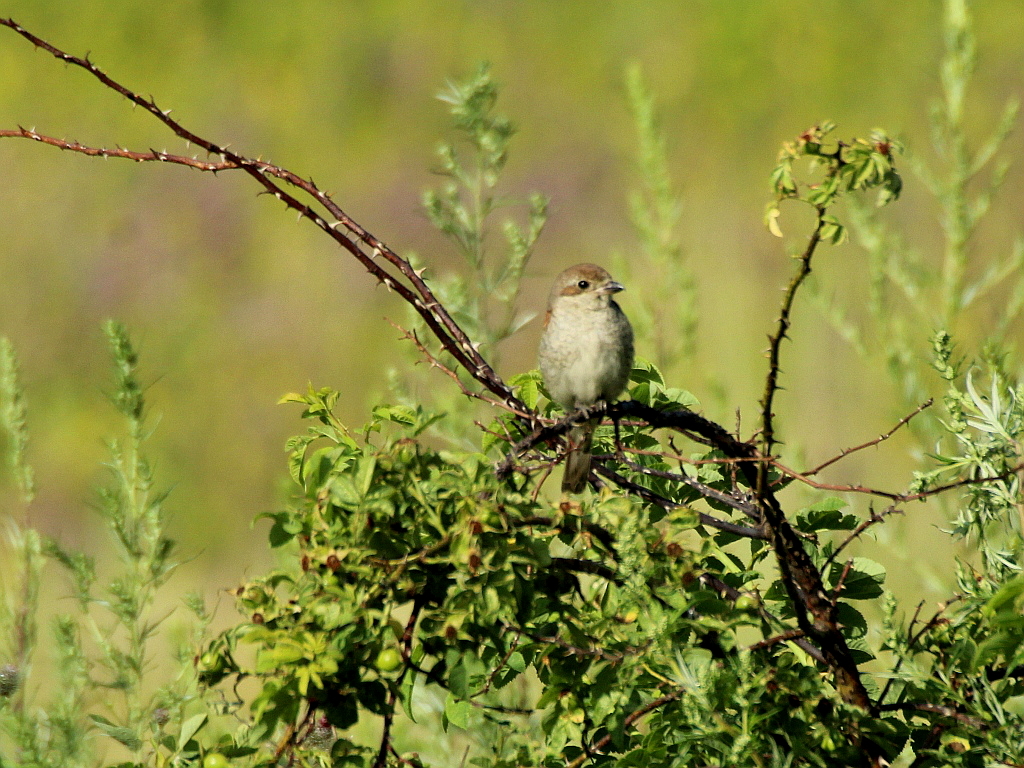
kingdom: Animalia
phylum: Chordata
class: Aves
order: Passeriformes
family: Laniidae
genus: Lanius
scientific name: Lanius collurio
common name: Red-backed shrike
